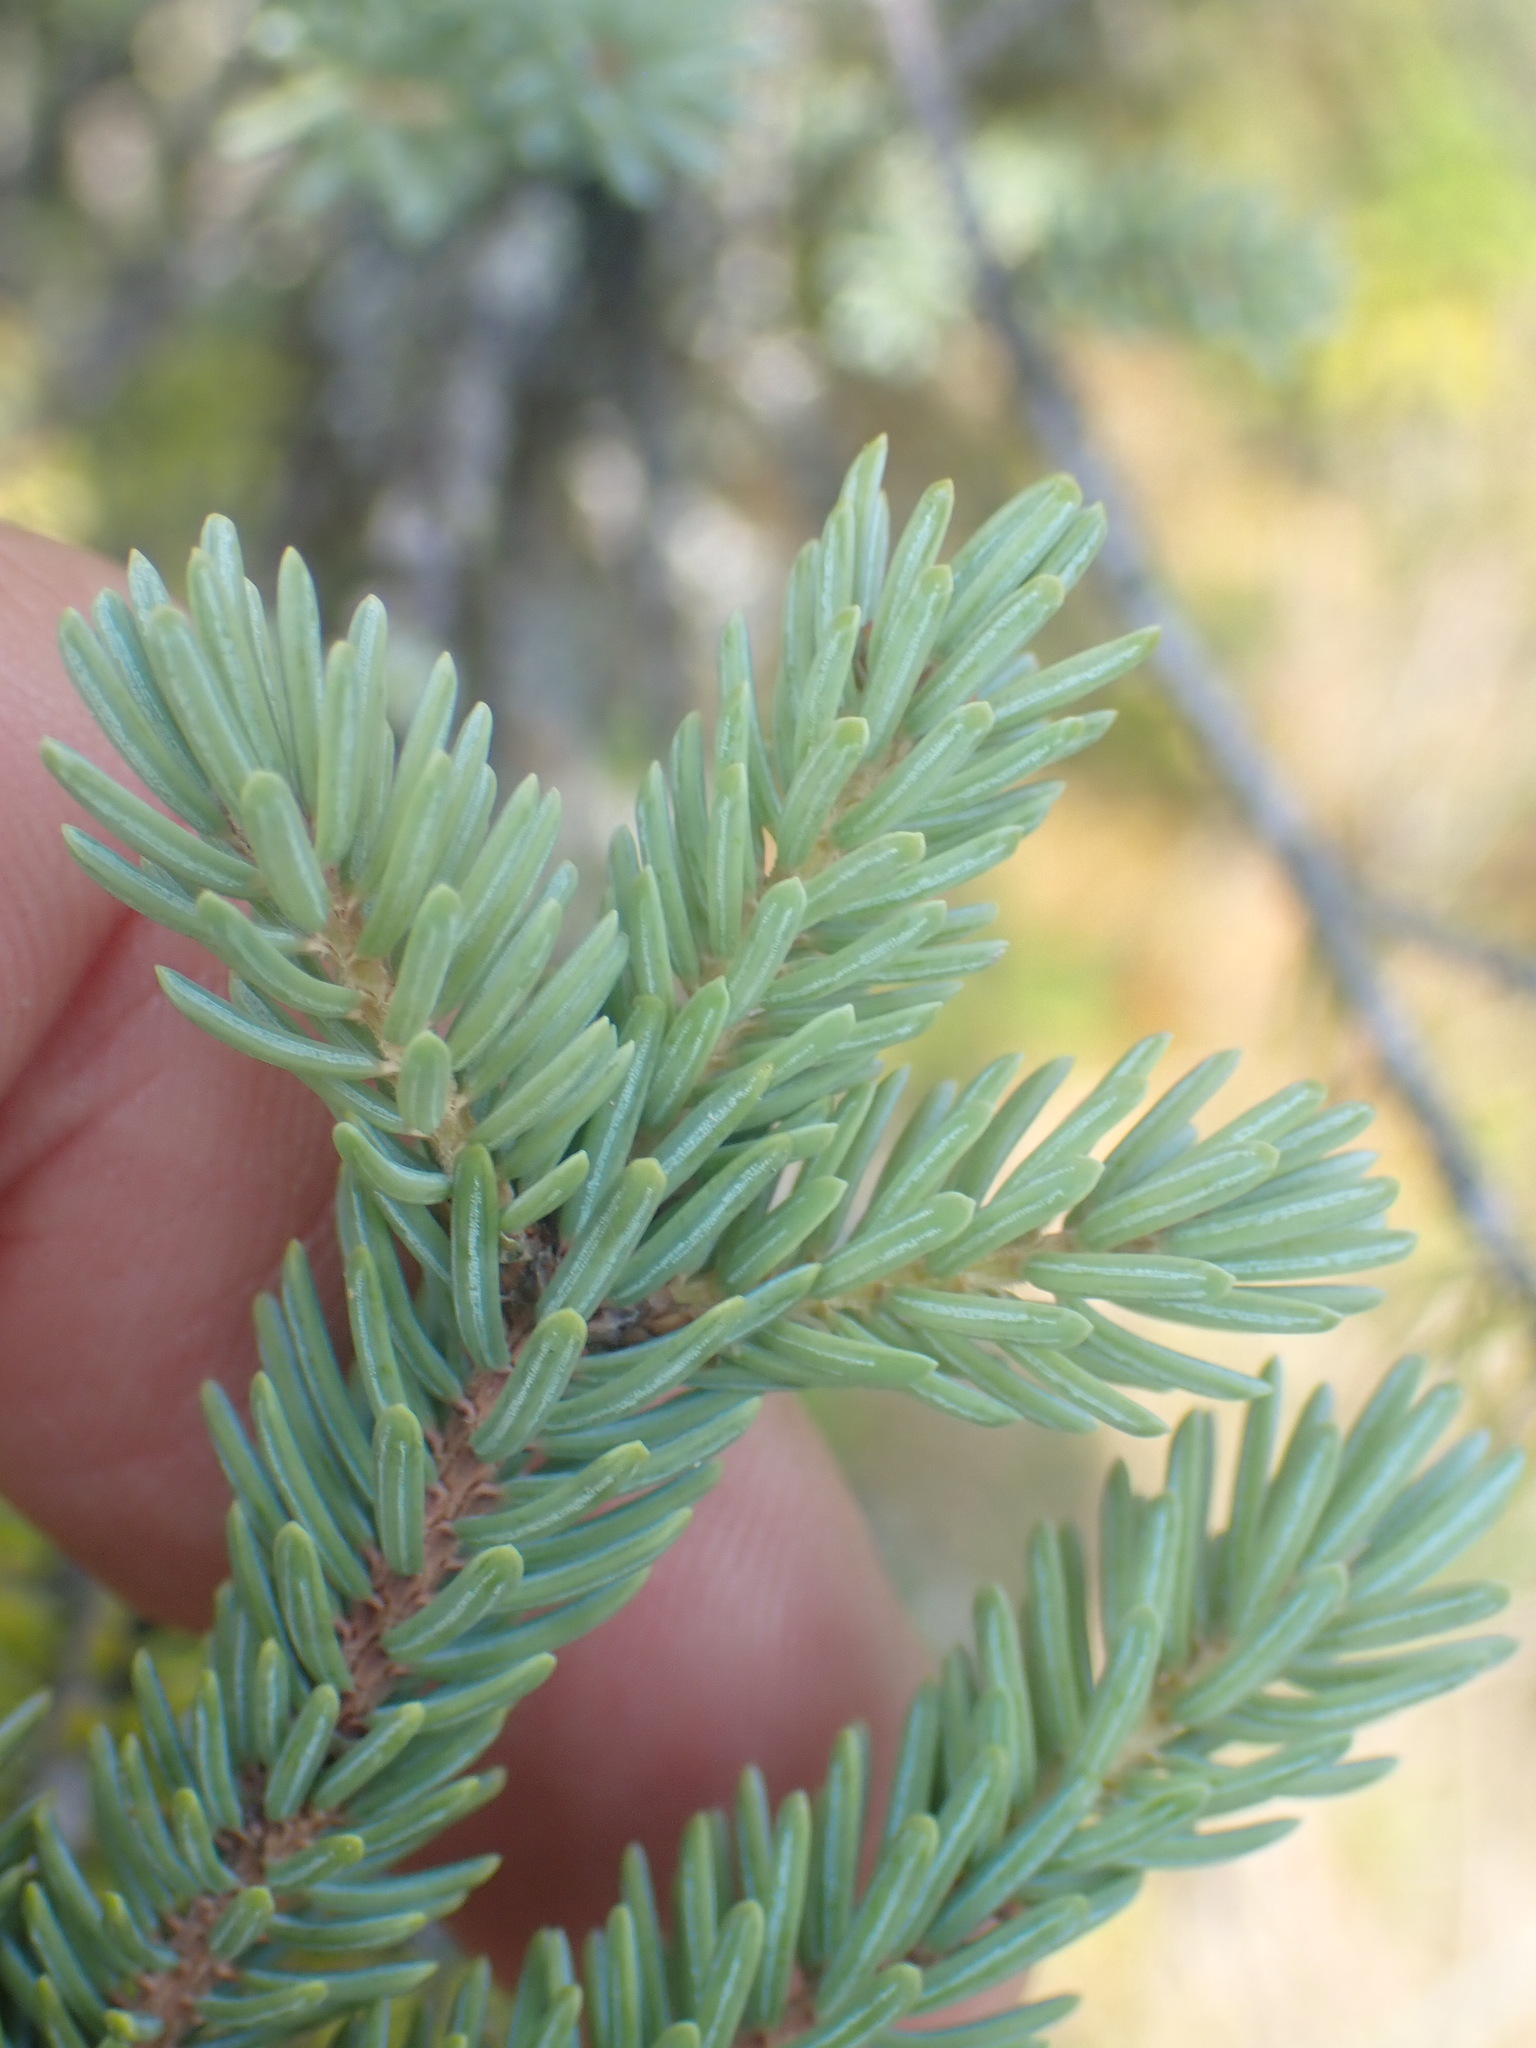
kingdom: Plantae
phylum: Tracheophyta
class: Pinopsida
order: Pinales
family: Pinaceae
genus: Picea
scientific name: Picea mariana
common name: Black spruce
